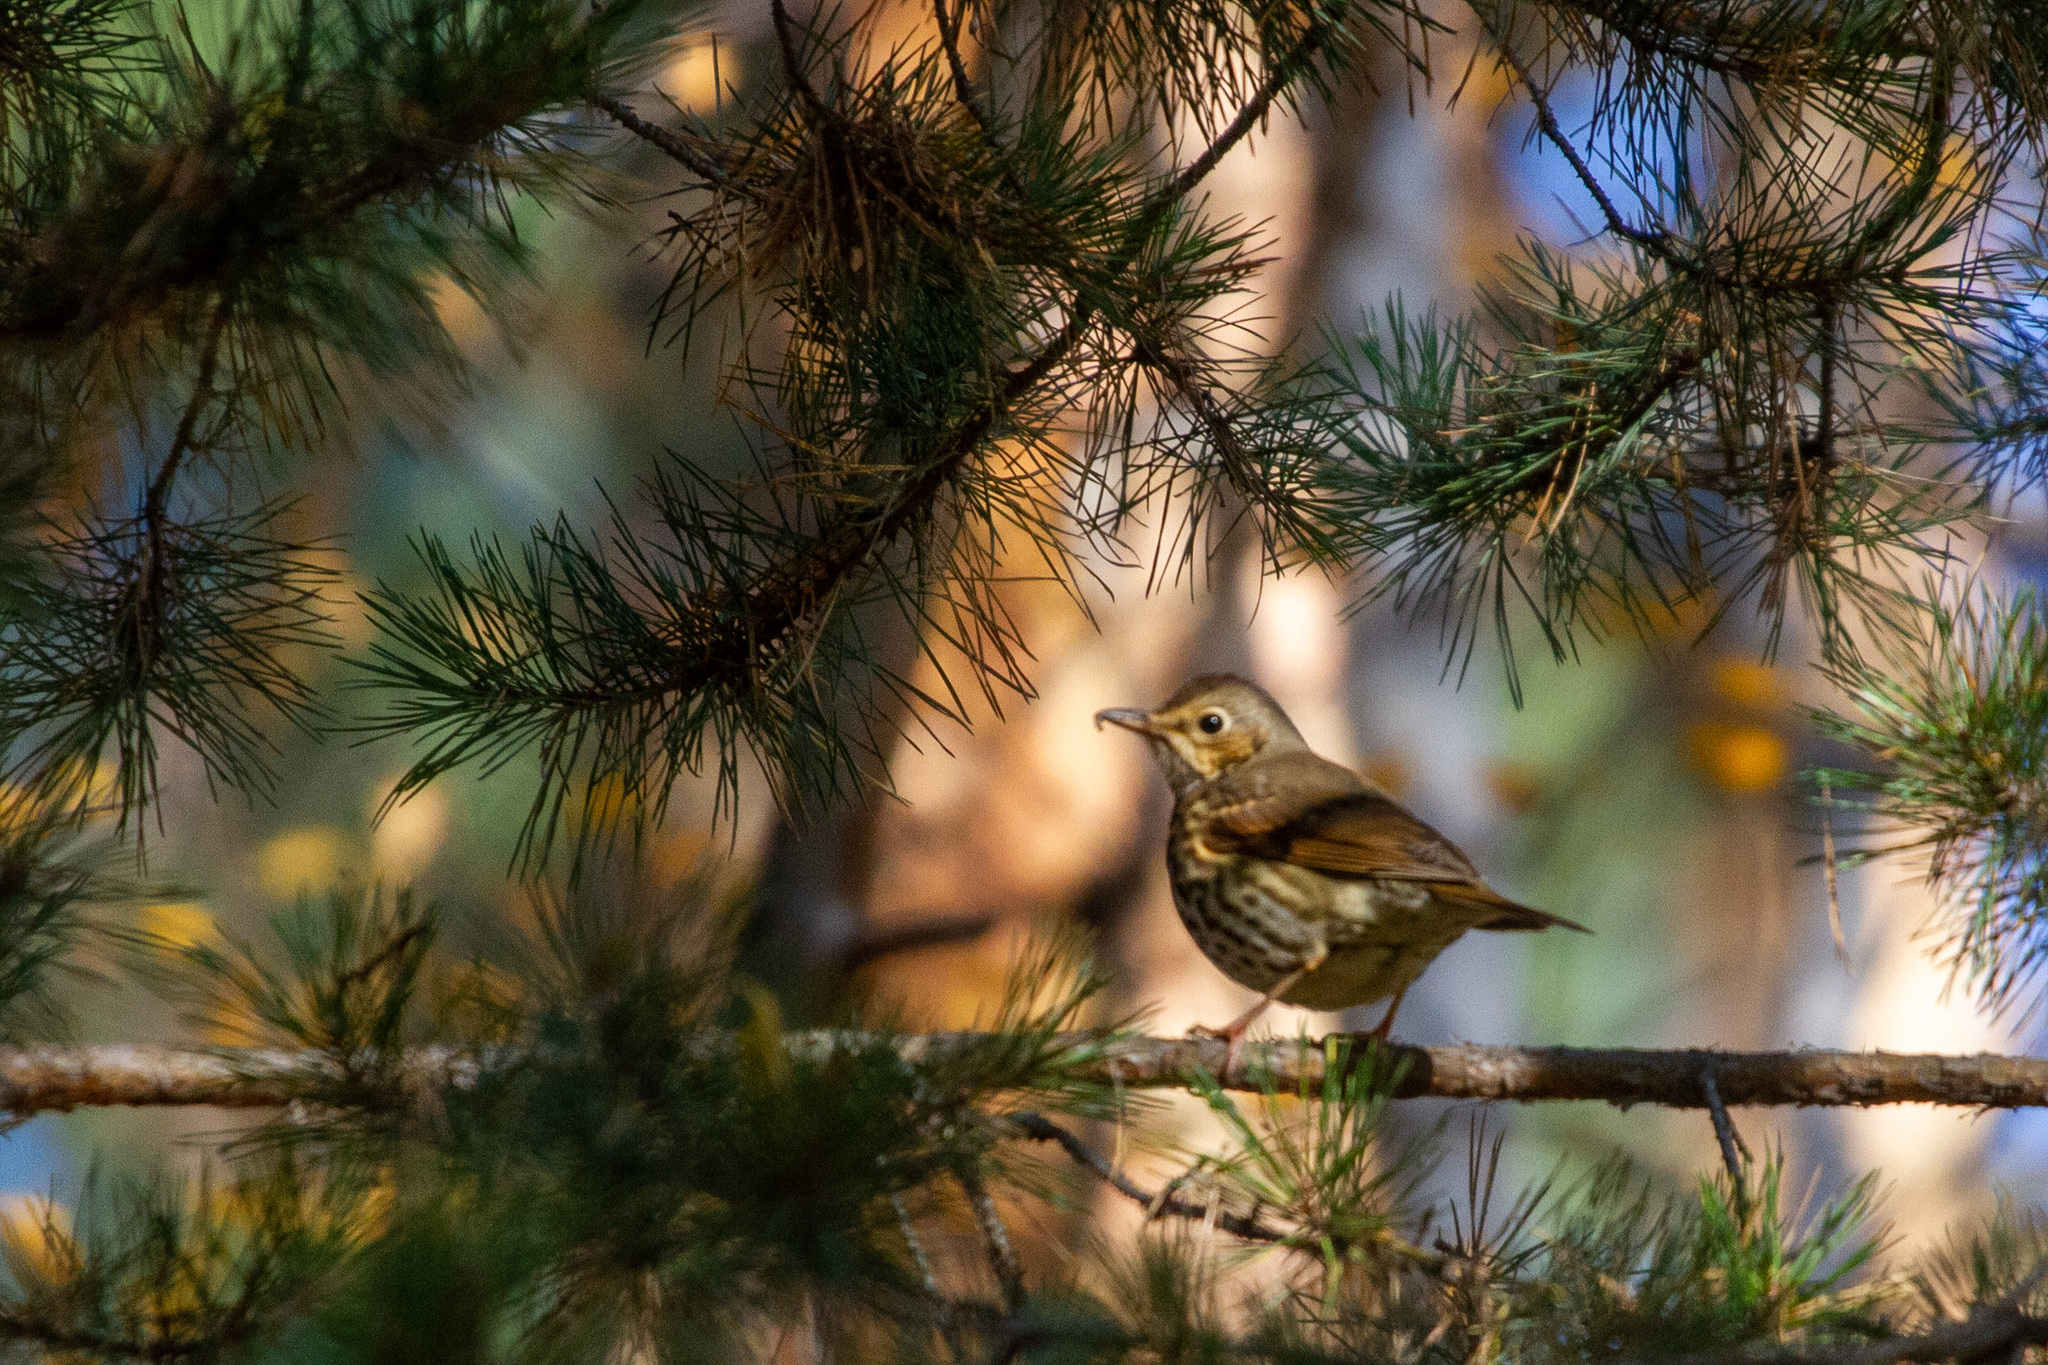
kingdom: Animalia
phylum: Chordata
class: Aves
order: Passeriformes
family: Turdidae
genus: Turdus
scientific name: Turdus philomelos
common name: Song thrush
